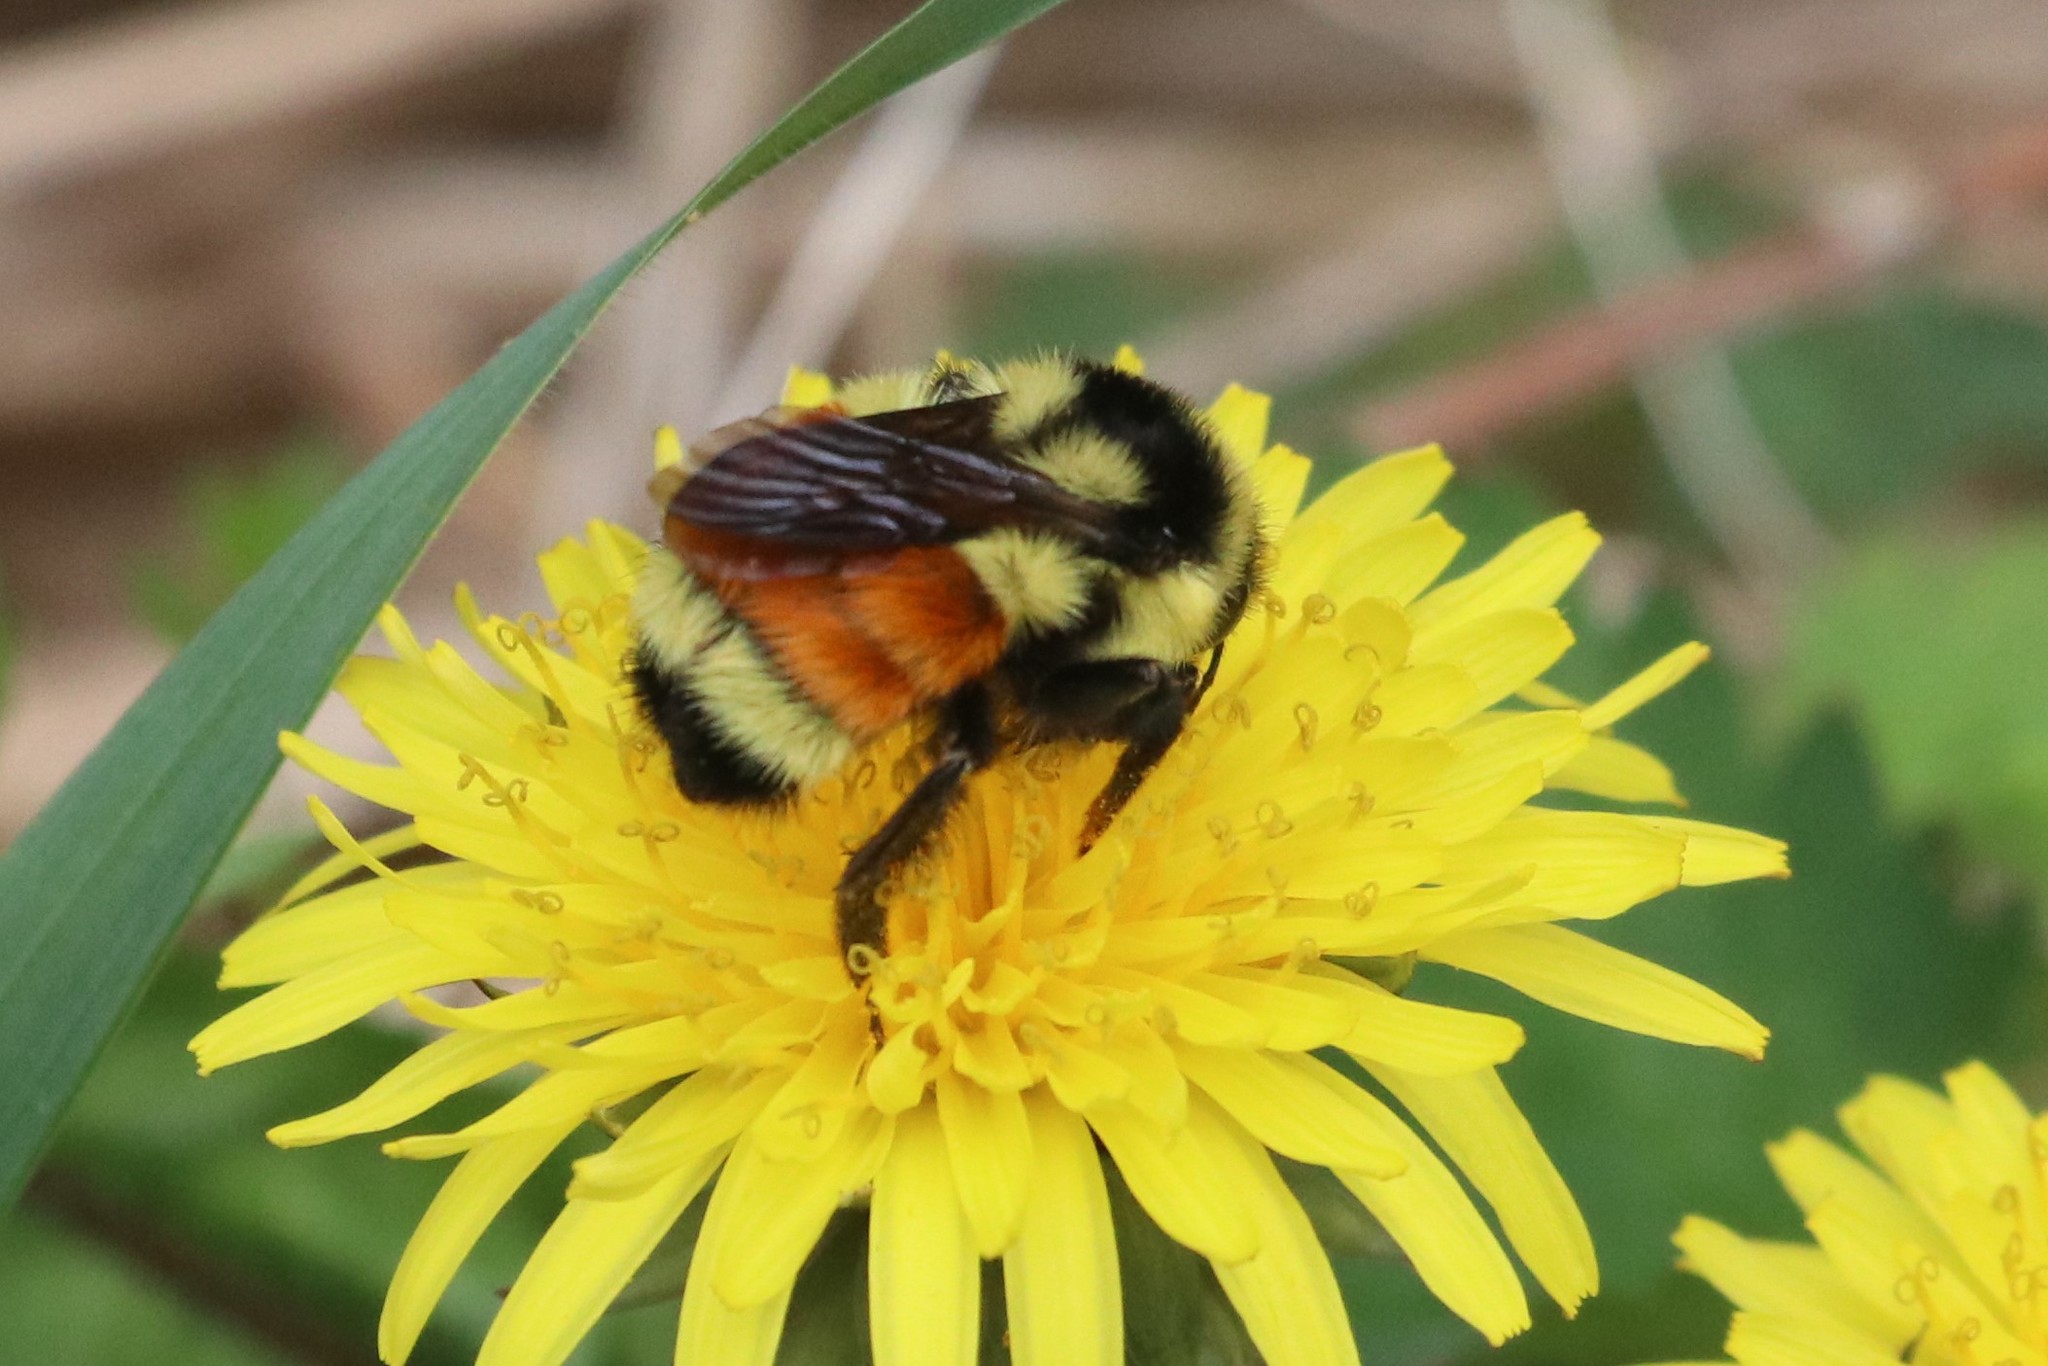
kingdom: Animalia
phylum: Arthropoda
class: Insecta
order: Hymenoptera
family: Apidae
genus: Bombus
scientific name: Bombus ternarius
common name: Tri-colored bumble bee
